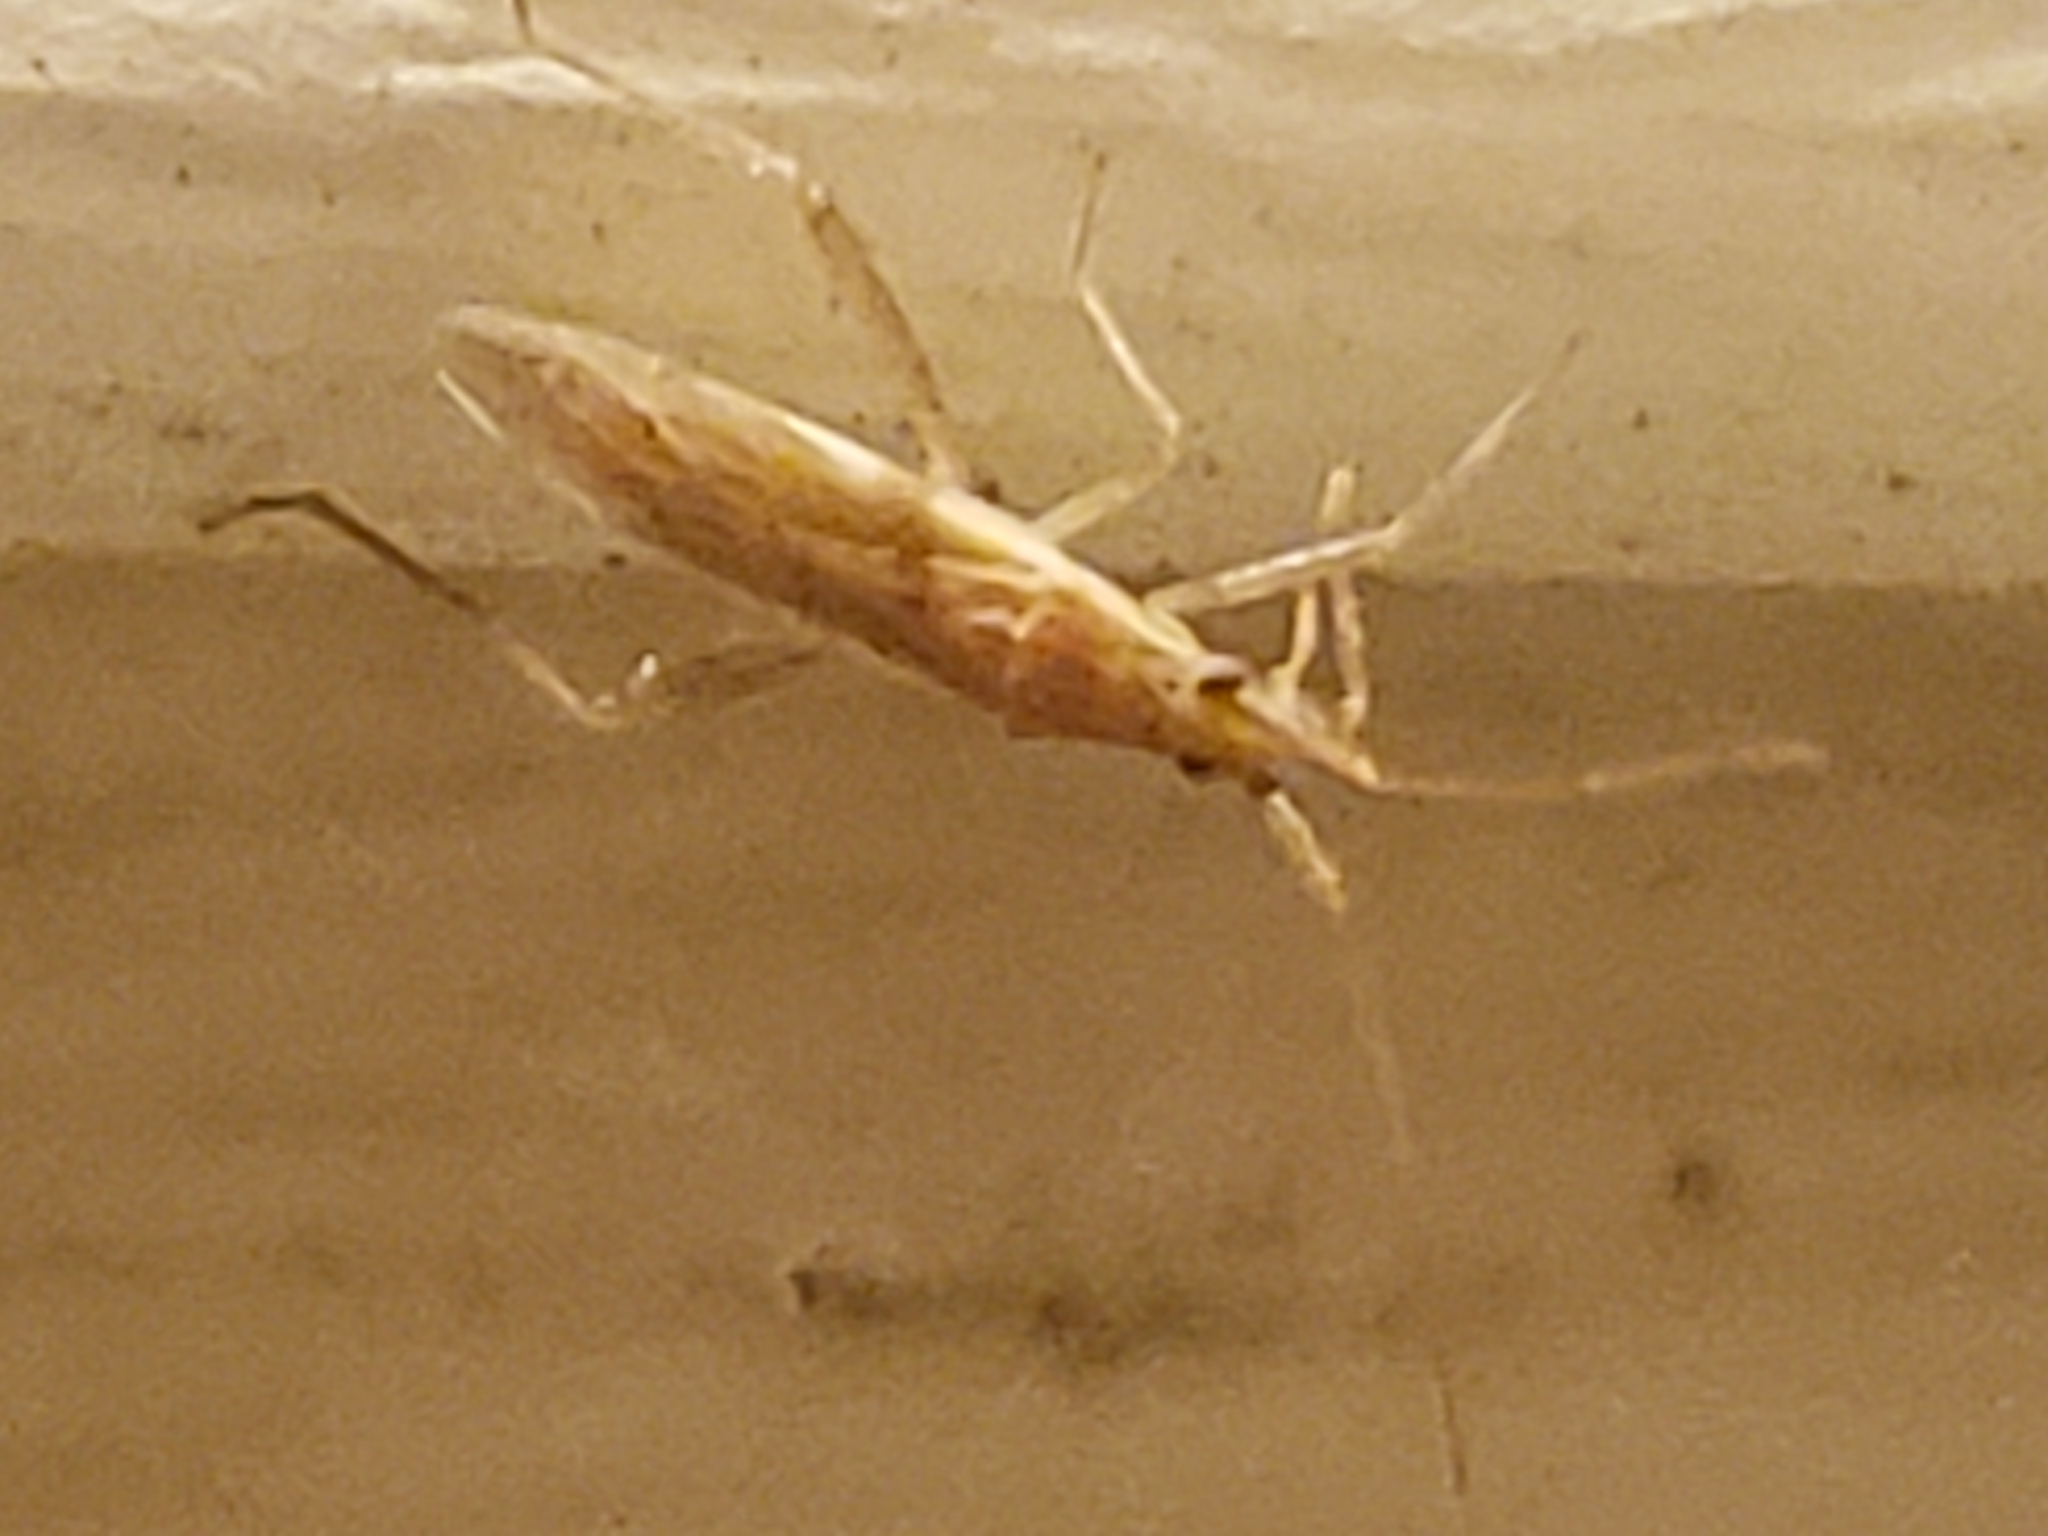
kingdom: Animalia
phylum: Arthropoda
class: Insecta
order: Hemiptera
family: Miridae
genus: Stenodema
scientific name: Stenodema trispinosa
